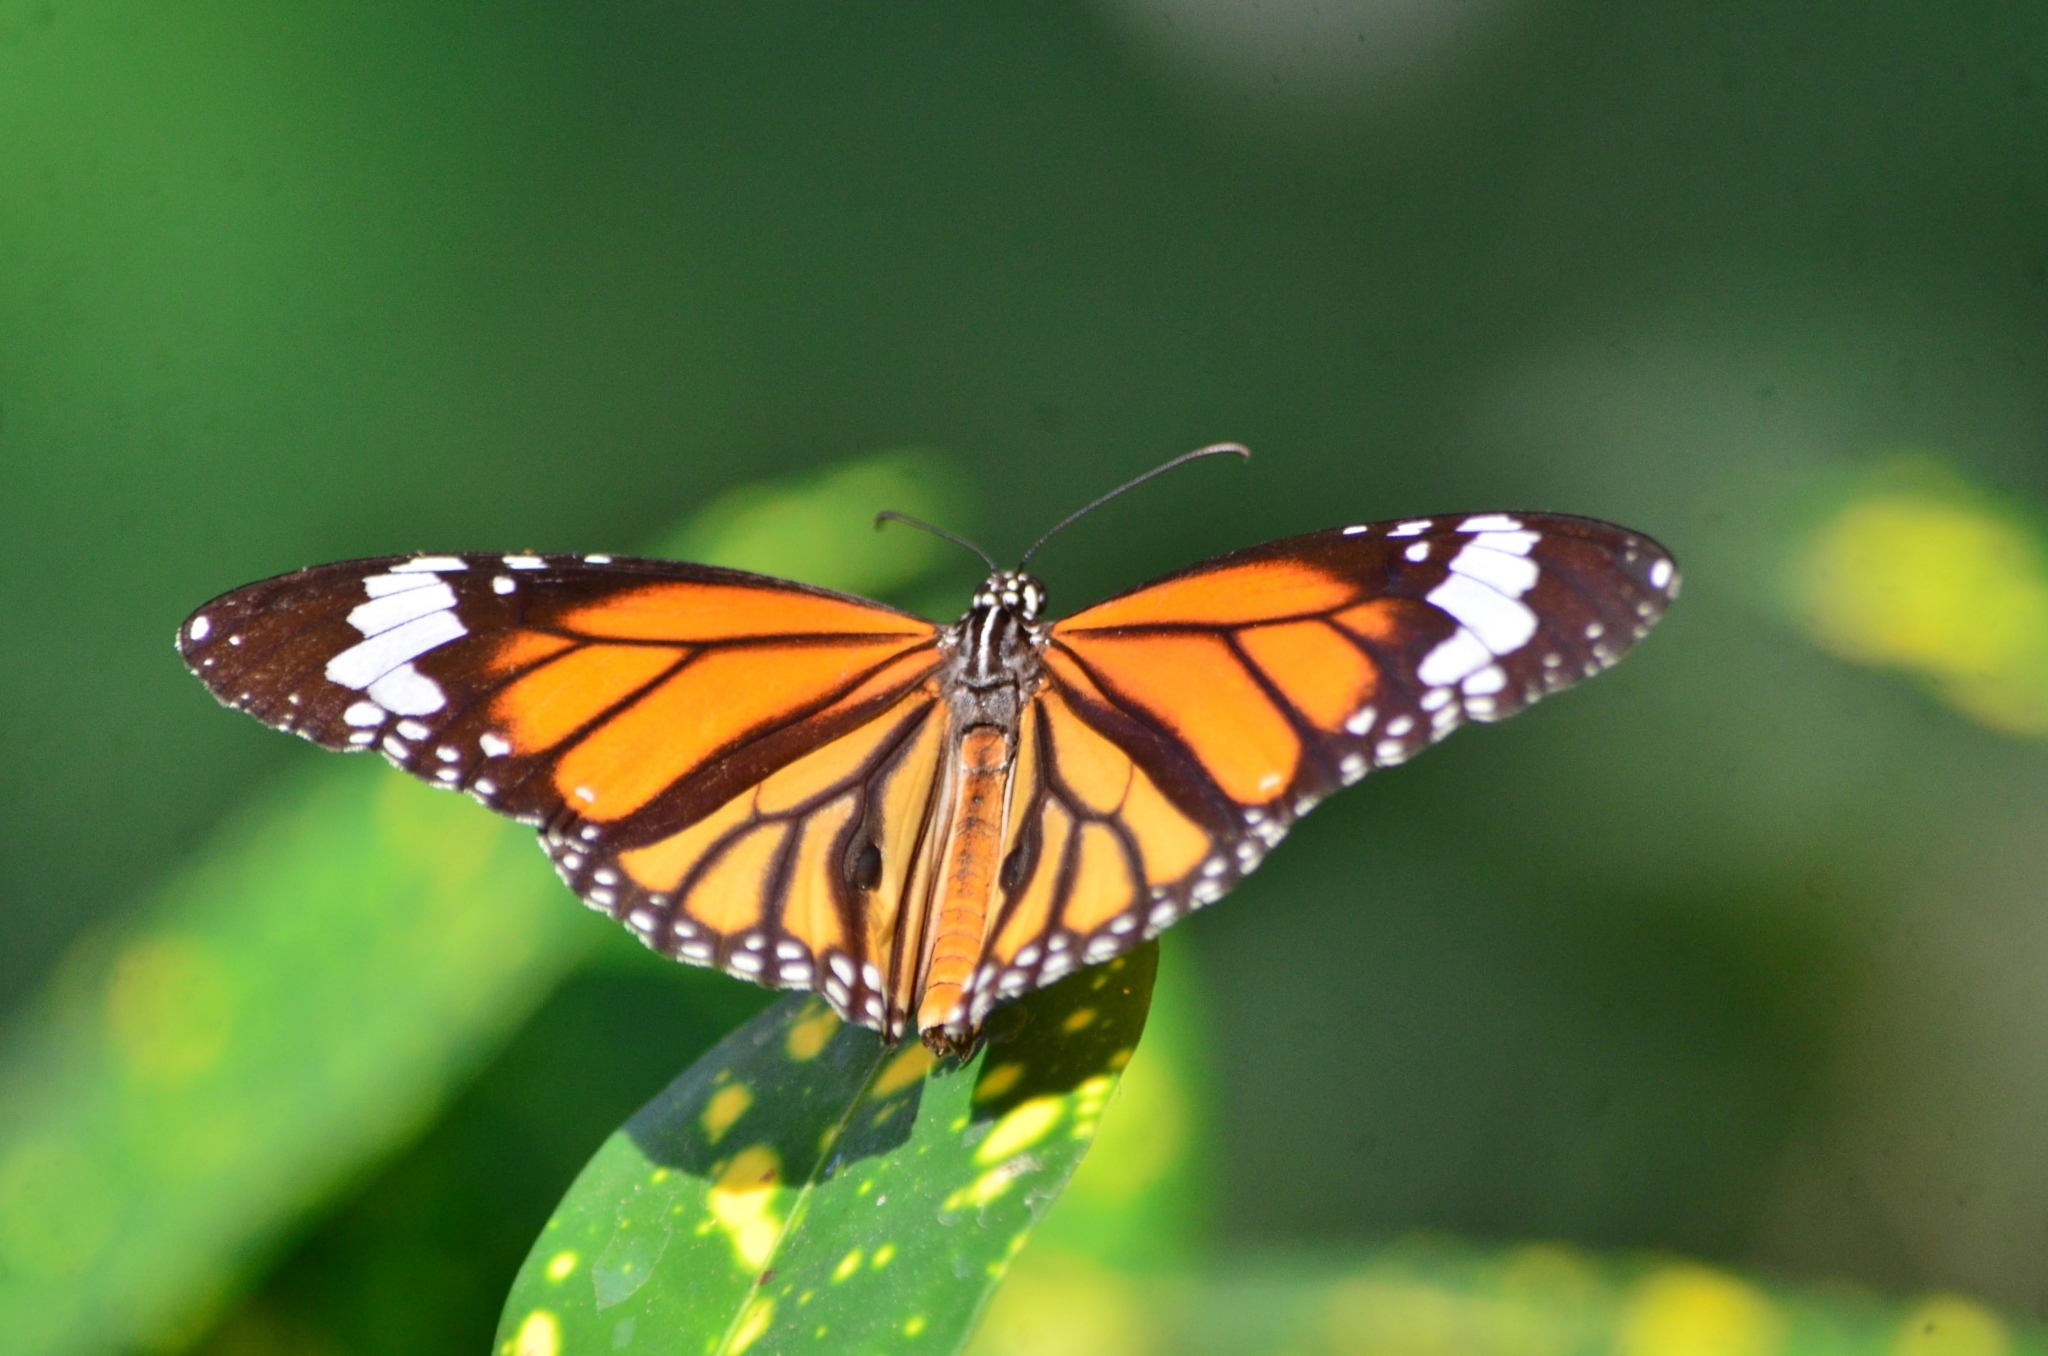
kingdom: Animalia
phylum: Arthropoda
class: Insecta
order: Lepidoptera
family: Nymphalidae
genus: Danaus
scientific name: Danaus genutia
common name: Common tiger butterfly
